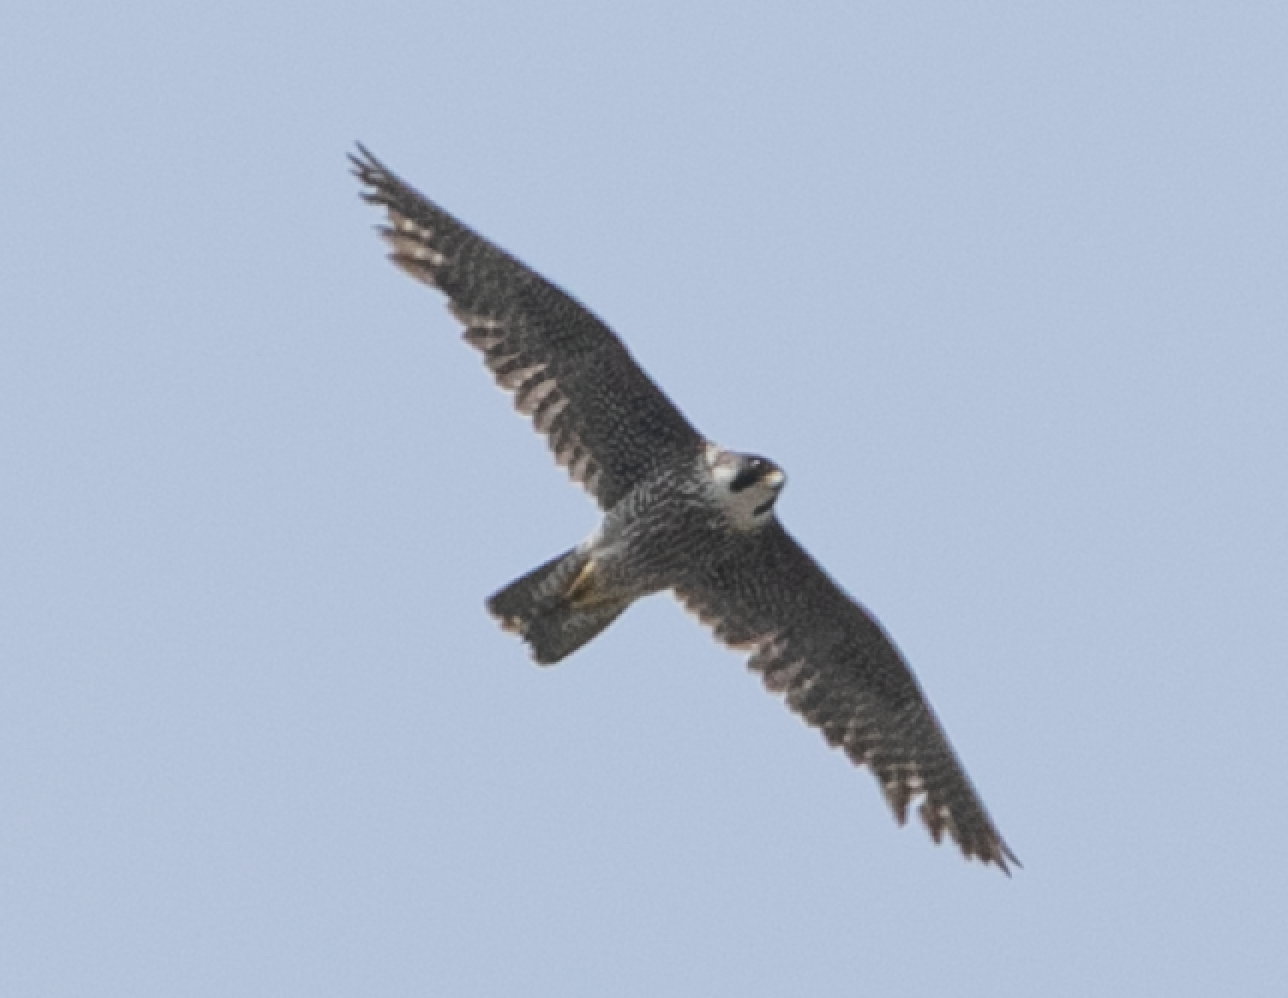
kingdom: Animalia
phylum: Chordata
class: Aves
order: Falconiformes
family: Falconidae
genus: Falco
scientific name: Falco peregrinus
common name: Peregrine falcon
